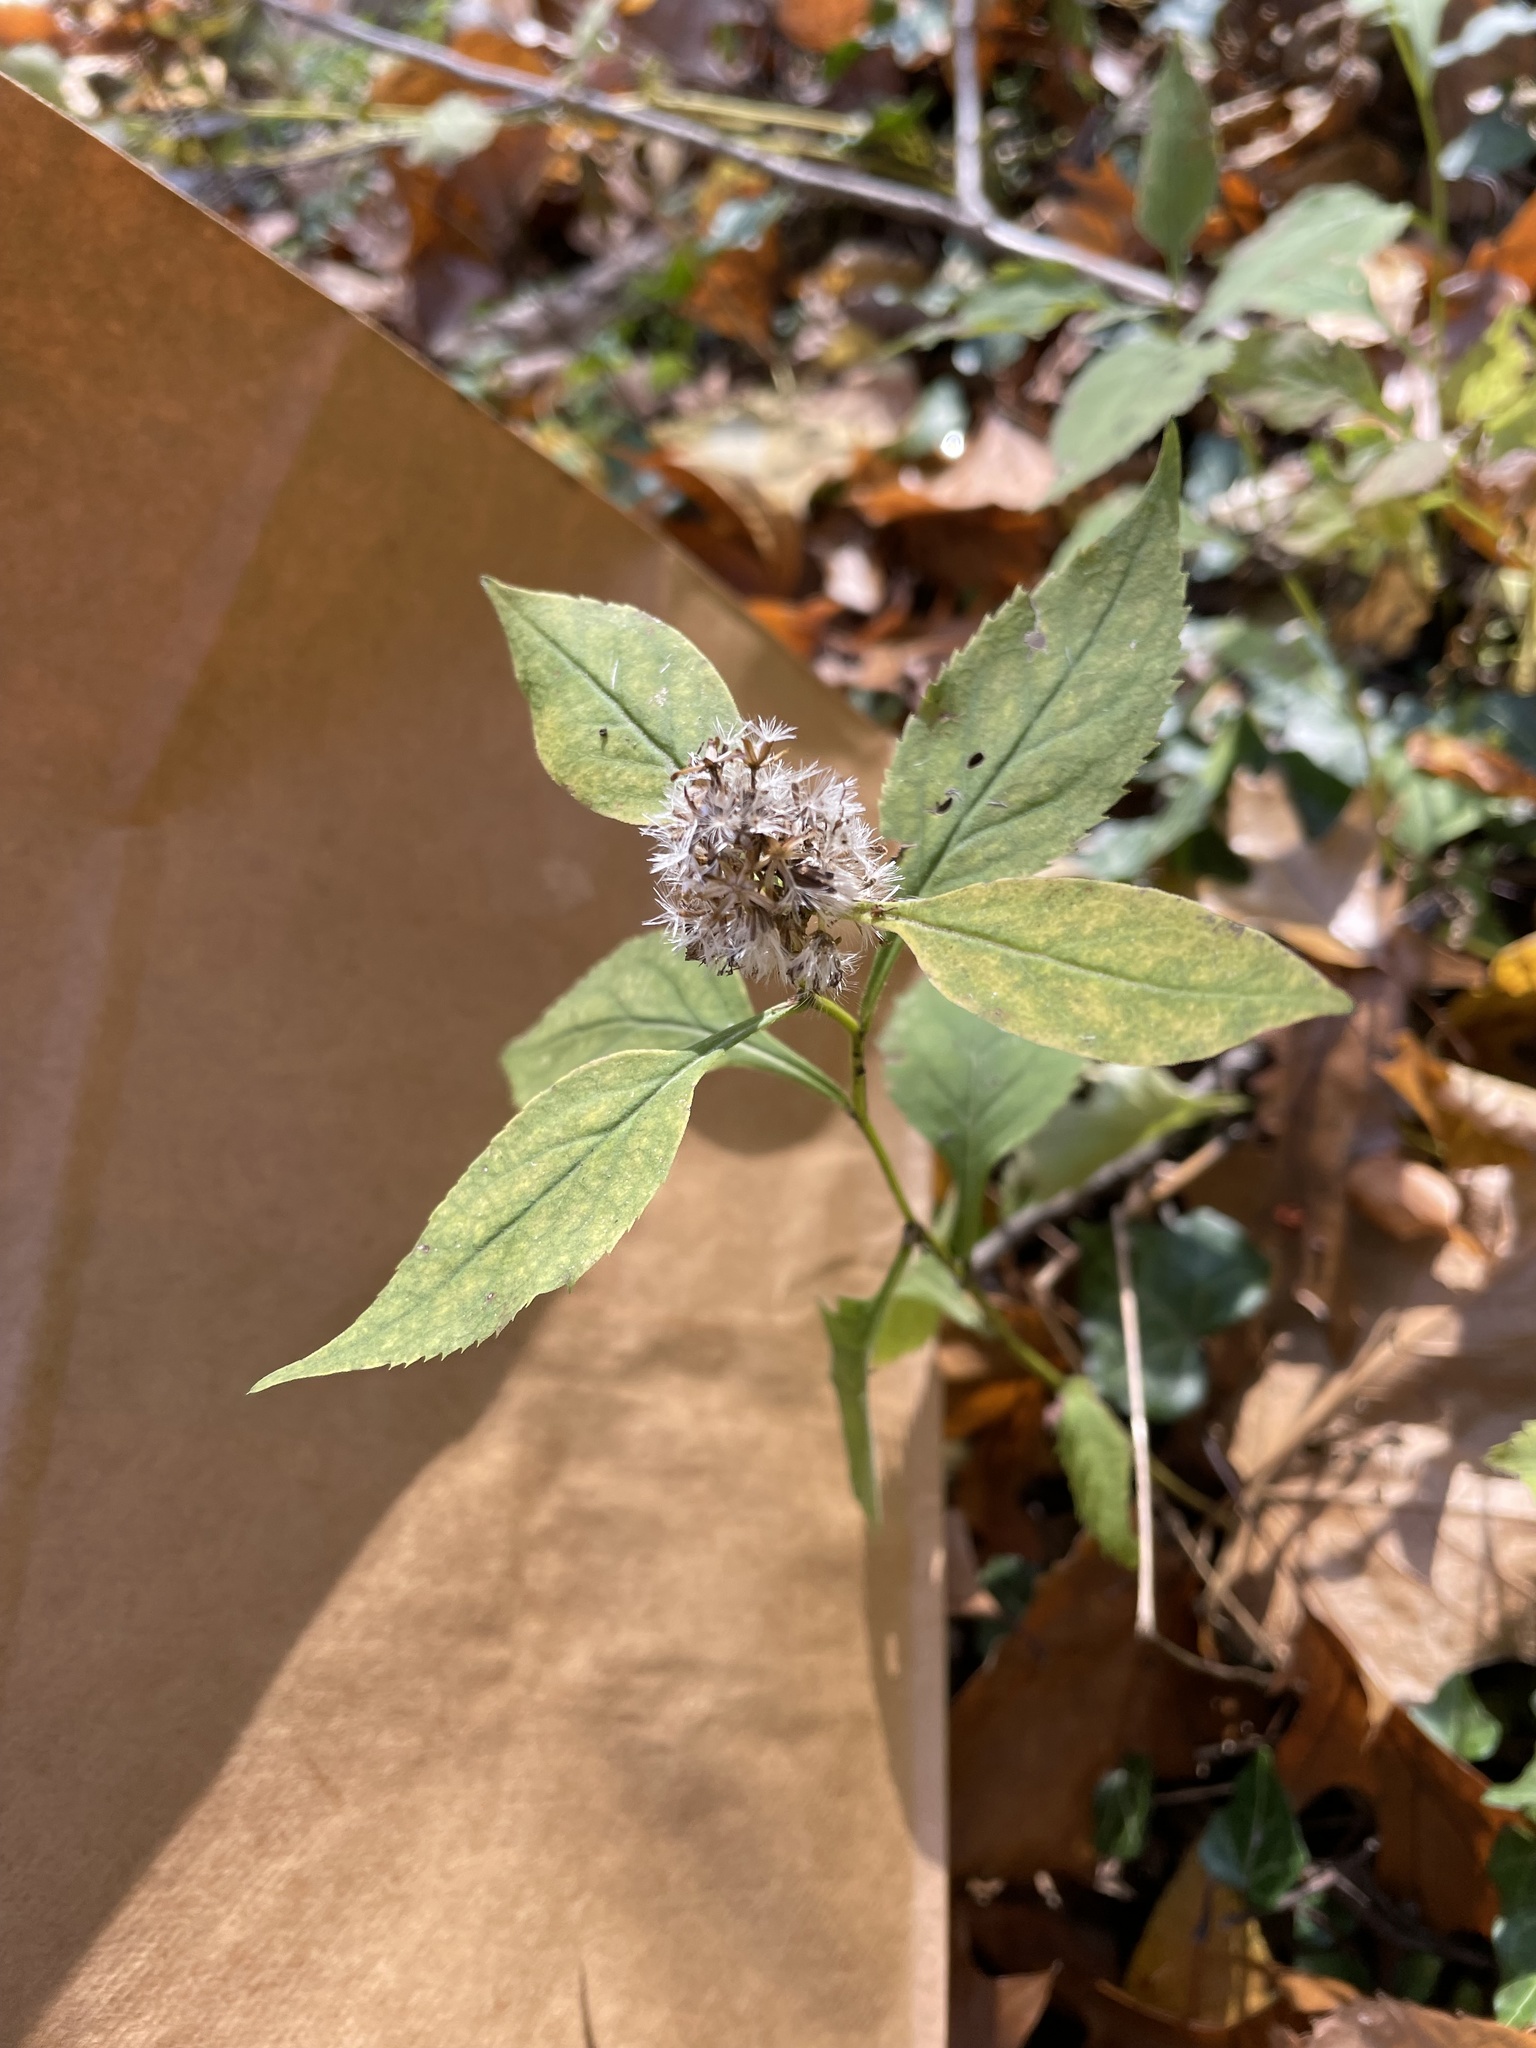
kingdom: Plantae
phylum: Tracheophyta
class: Magnoliopsida
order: Asterales
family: Asteraceae
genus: Solidago
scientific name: Solidago flexicaulis
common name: Zig-zag goldenrod
